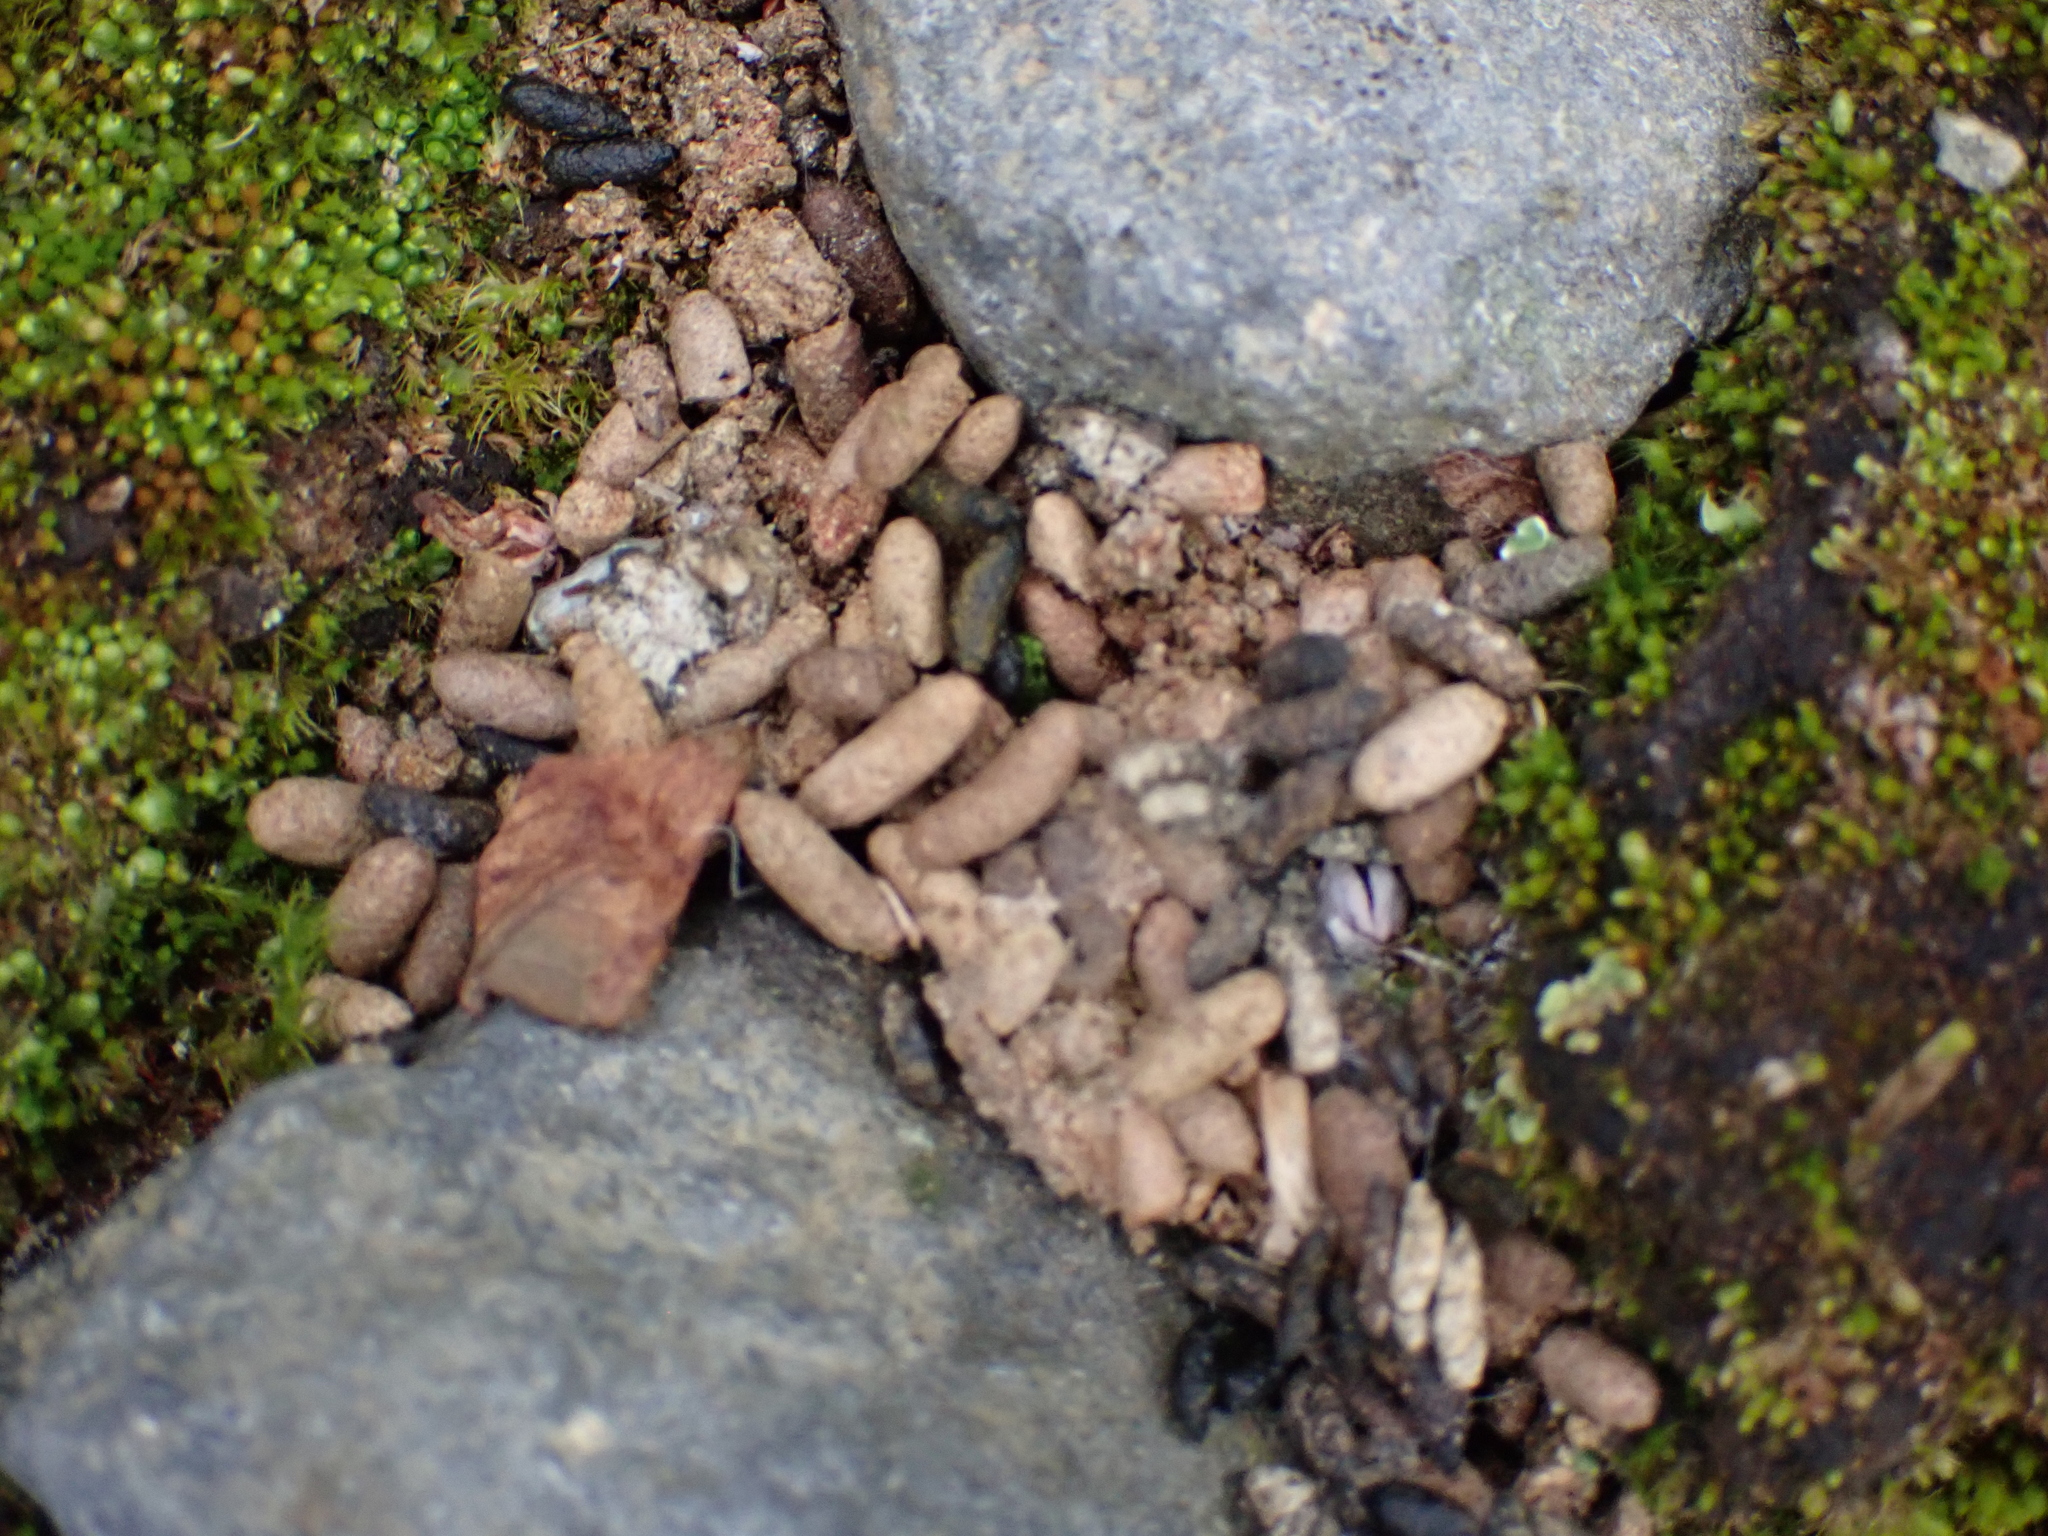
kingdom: Animalia
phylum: Chordata
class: Mammalia
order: Rodentia
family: Cricetidae
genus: Lemmus
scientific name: Lemmus trimucronatus
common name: Brown lemming
